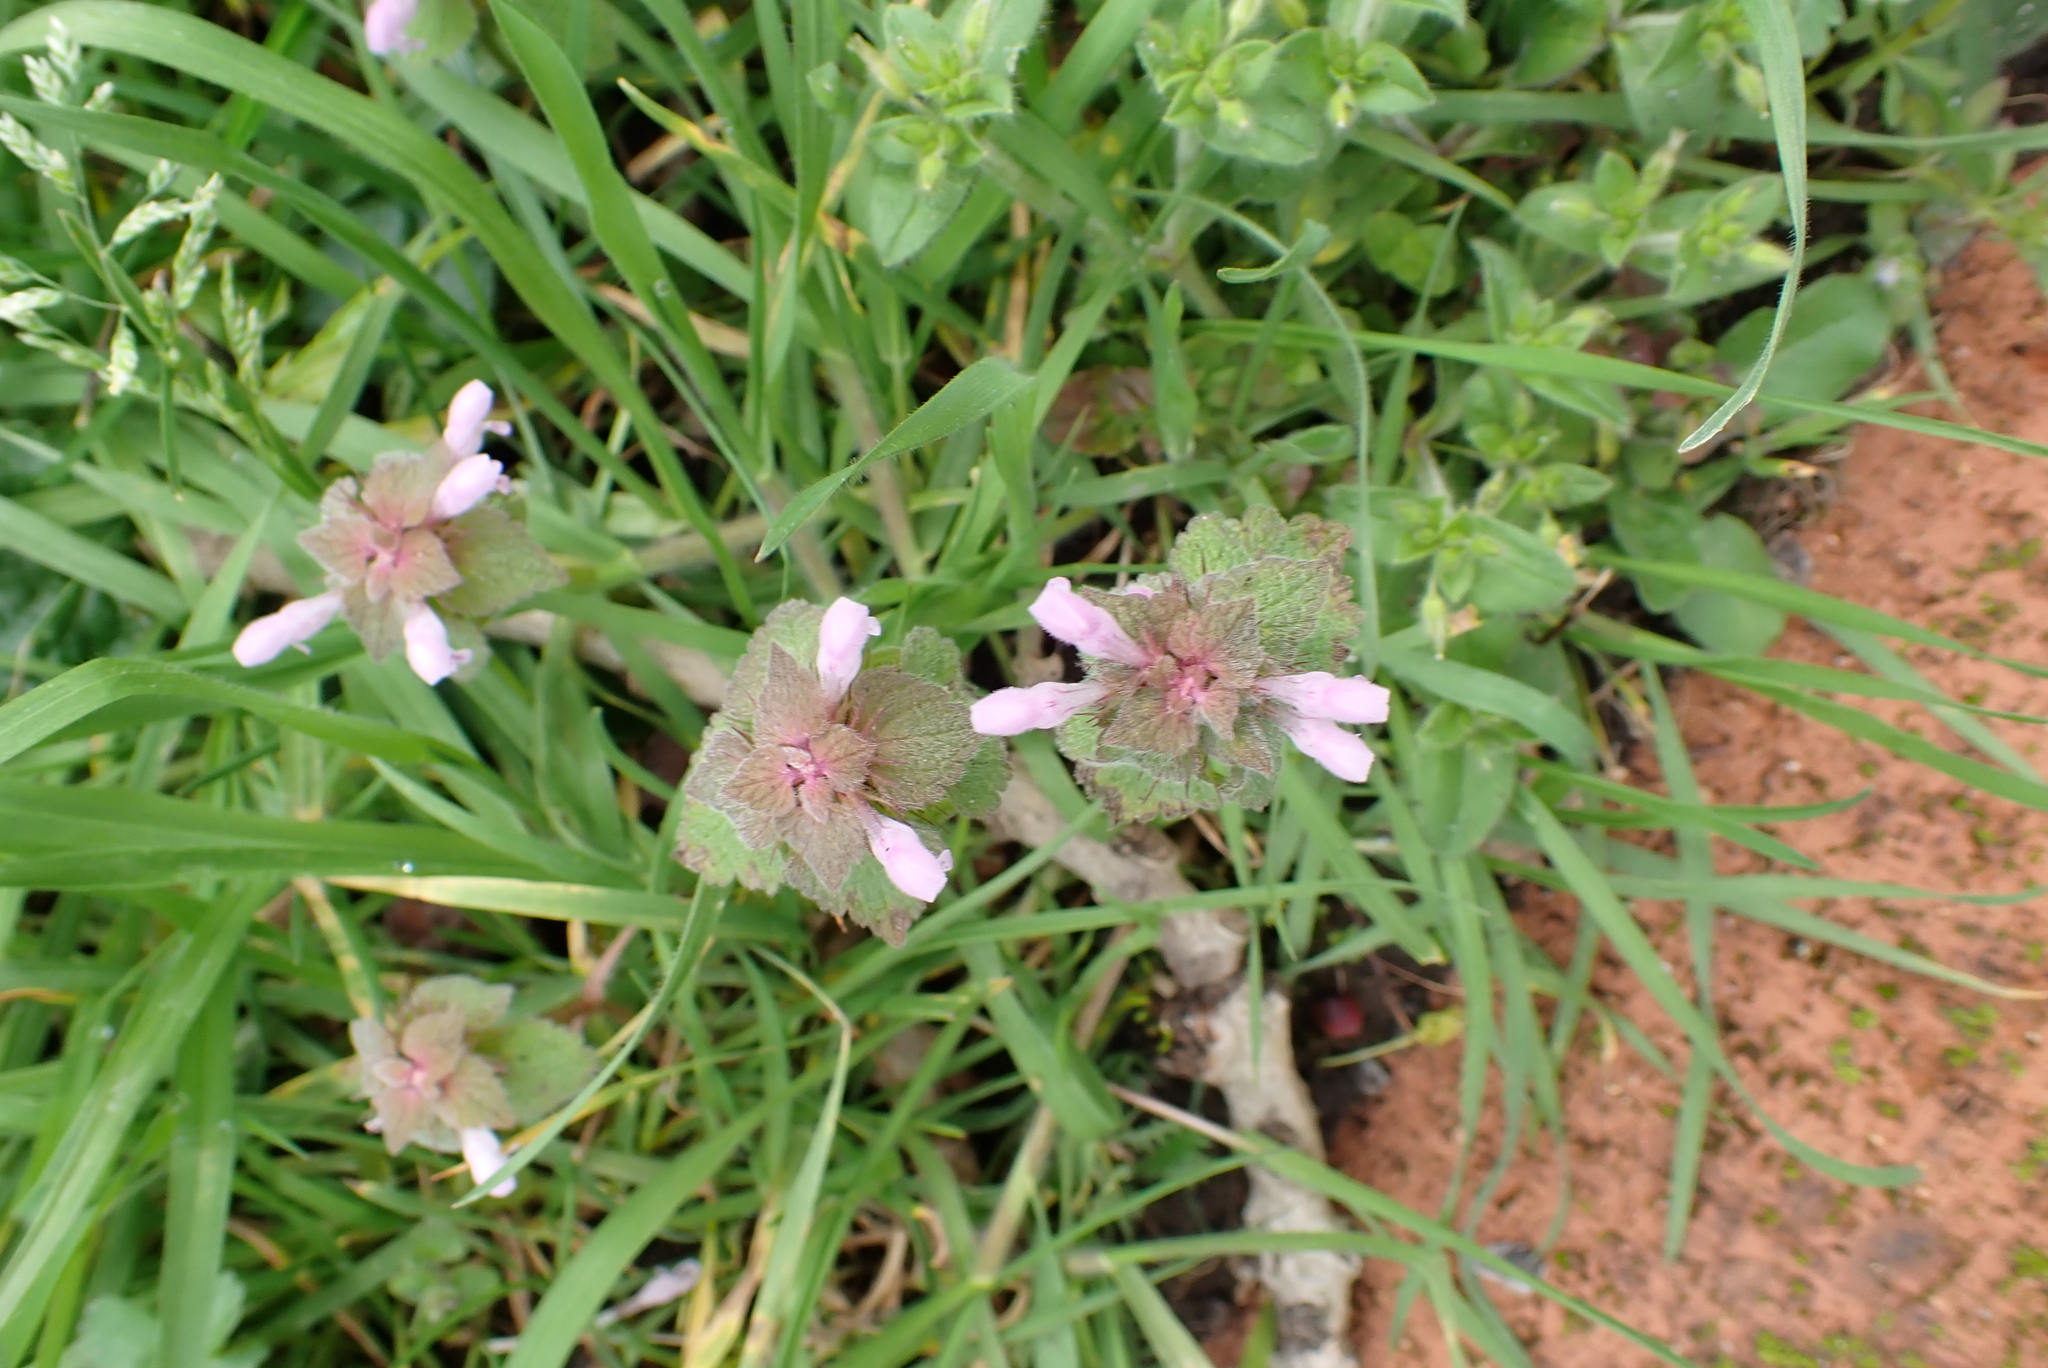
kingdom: Plantae
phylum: Tracheophyta
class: Magnoliopsida
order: Lamiales
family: Lamiaceae
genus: Lamium
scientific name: Lamium purpureum
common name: Red dead-nettle
